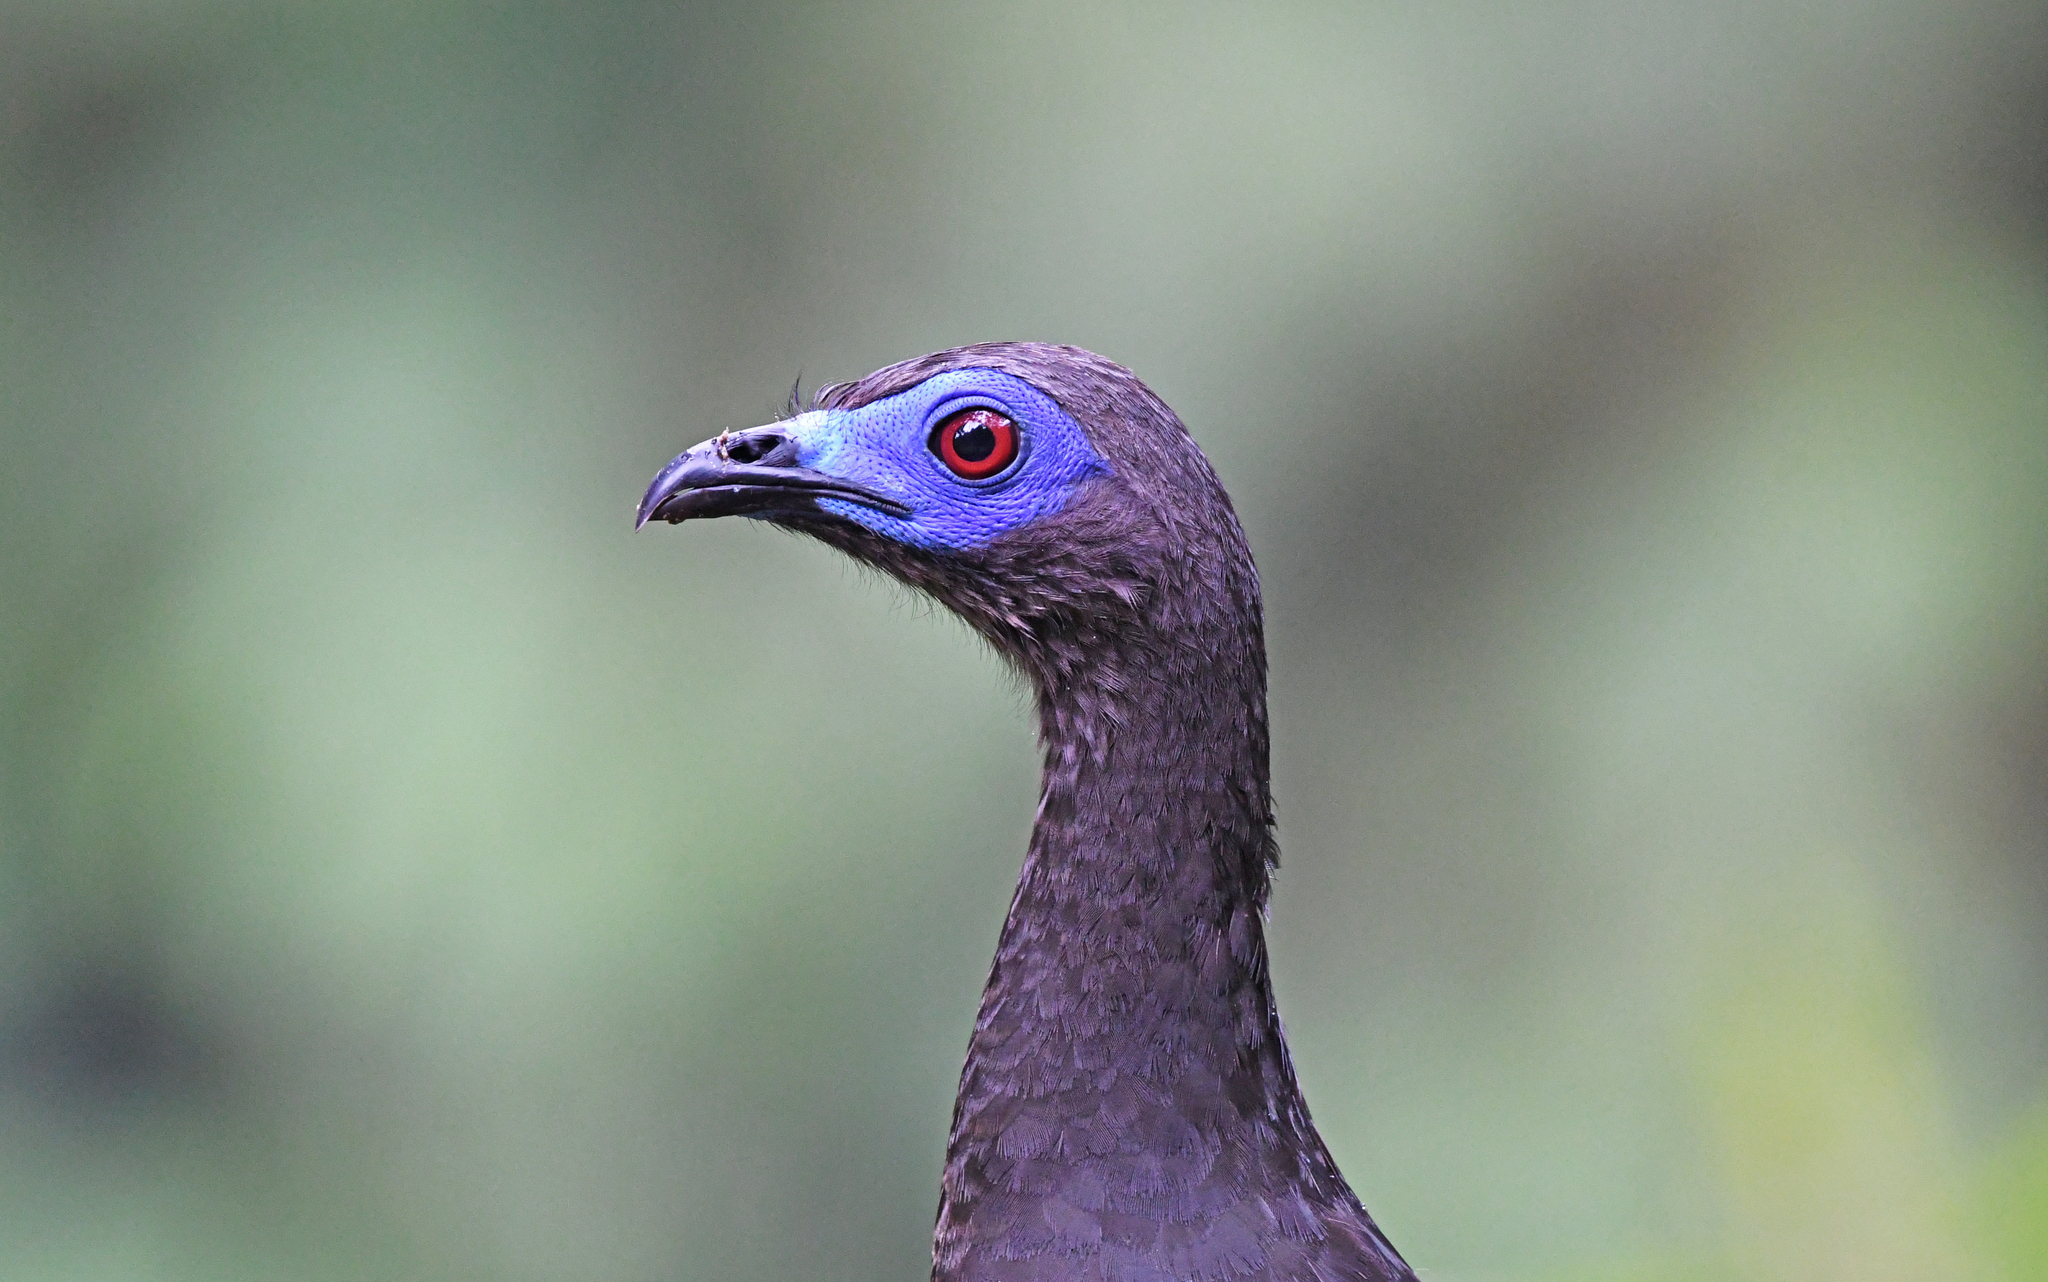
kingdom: Animalia
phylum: Chordata
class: Aves
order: Galliformes
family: Cracidae
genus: Chamaepetes
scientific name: Chamaepetes goudotii
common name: Sickle-winged guan
